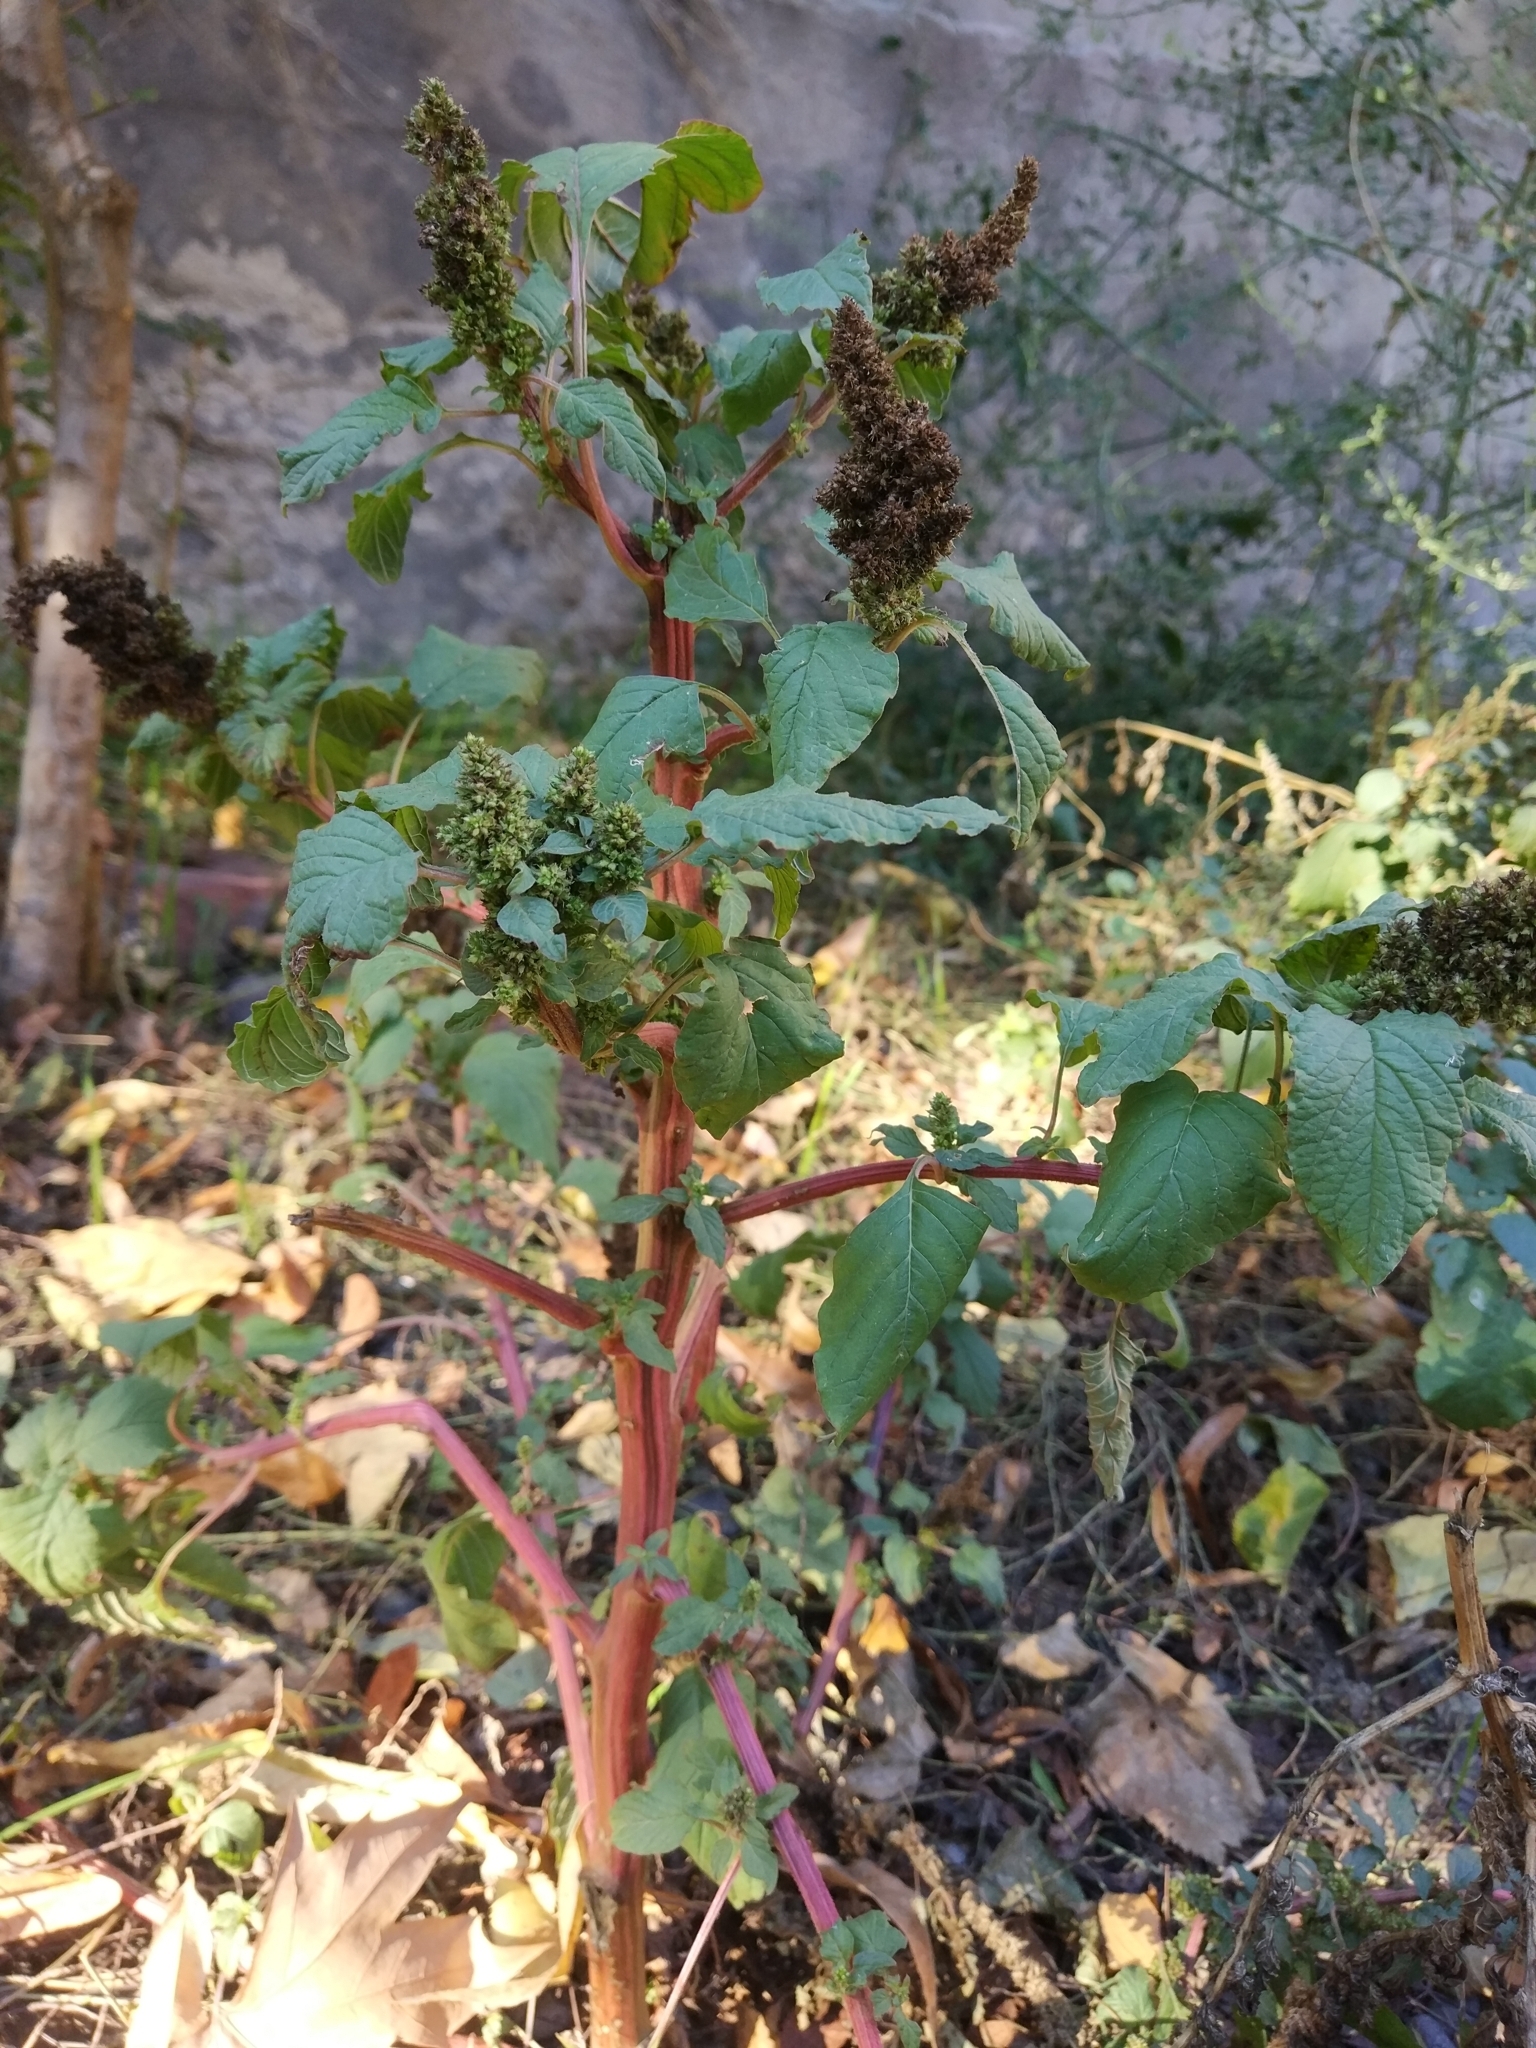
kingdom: Plantae
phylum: Tracheophyta
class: Magnoliopsida
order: Caryophyllales
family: Amaranthaceae
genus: Amaranthus
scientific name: Amaranthus retroflexus
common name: Redroot amaranth
